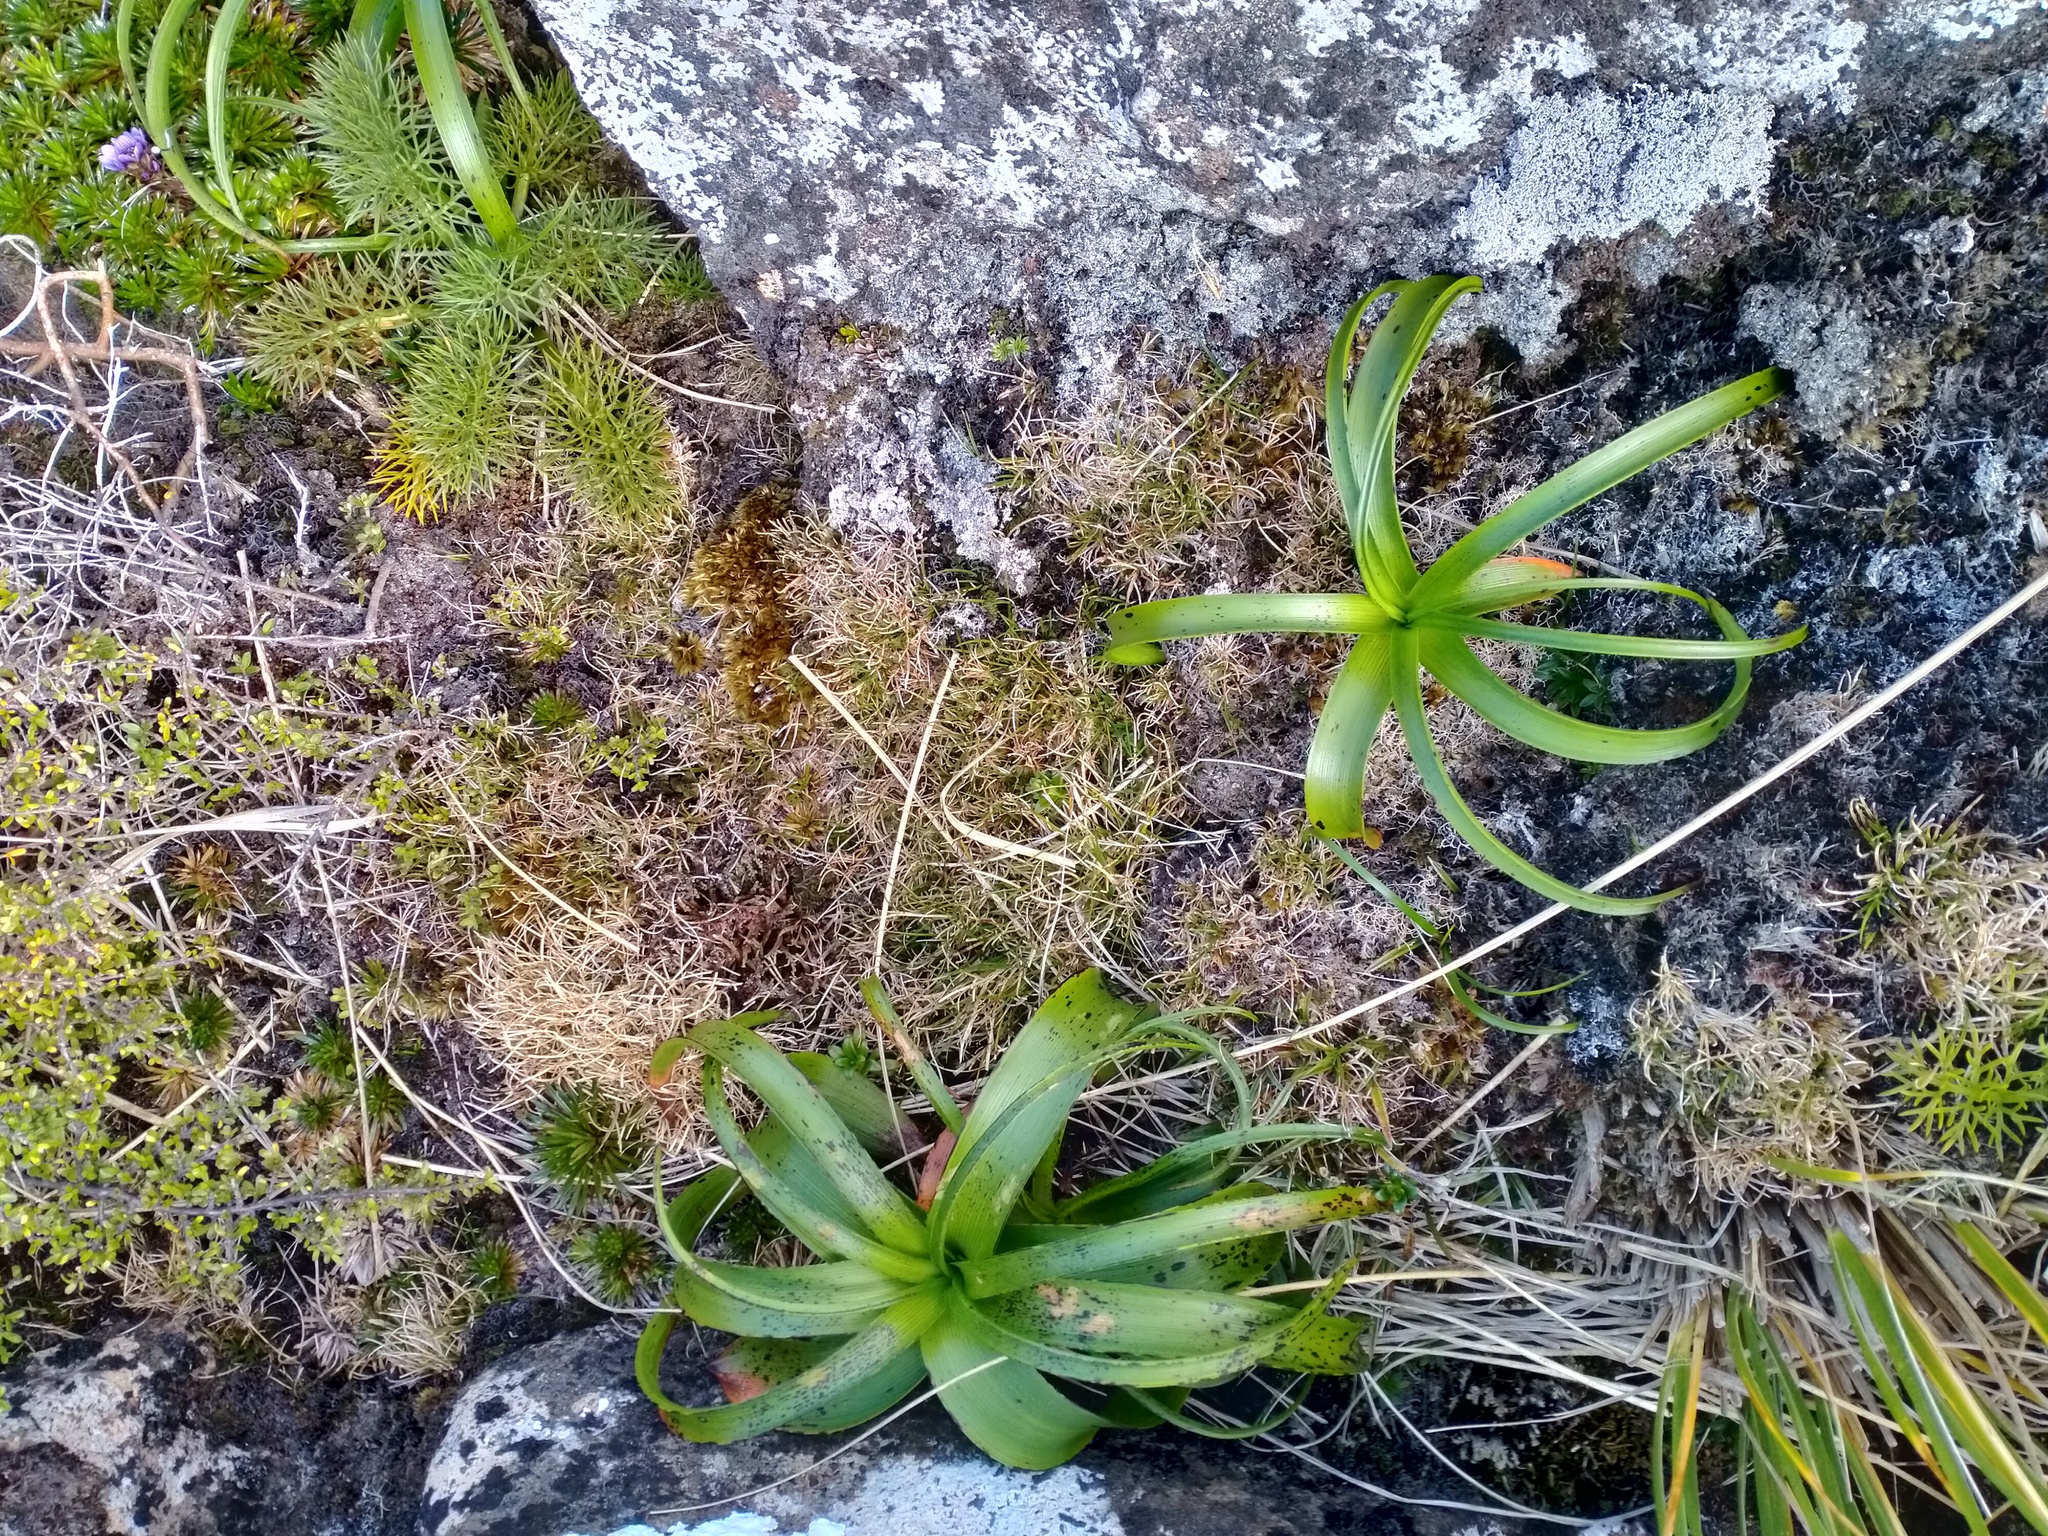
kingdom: Plantae
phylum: Tracheophyta
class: Liliopsida
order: Asparagales
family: Asphodelaceae
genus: Bulbinella
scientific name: Bulbinella rossii
